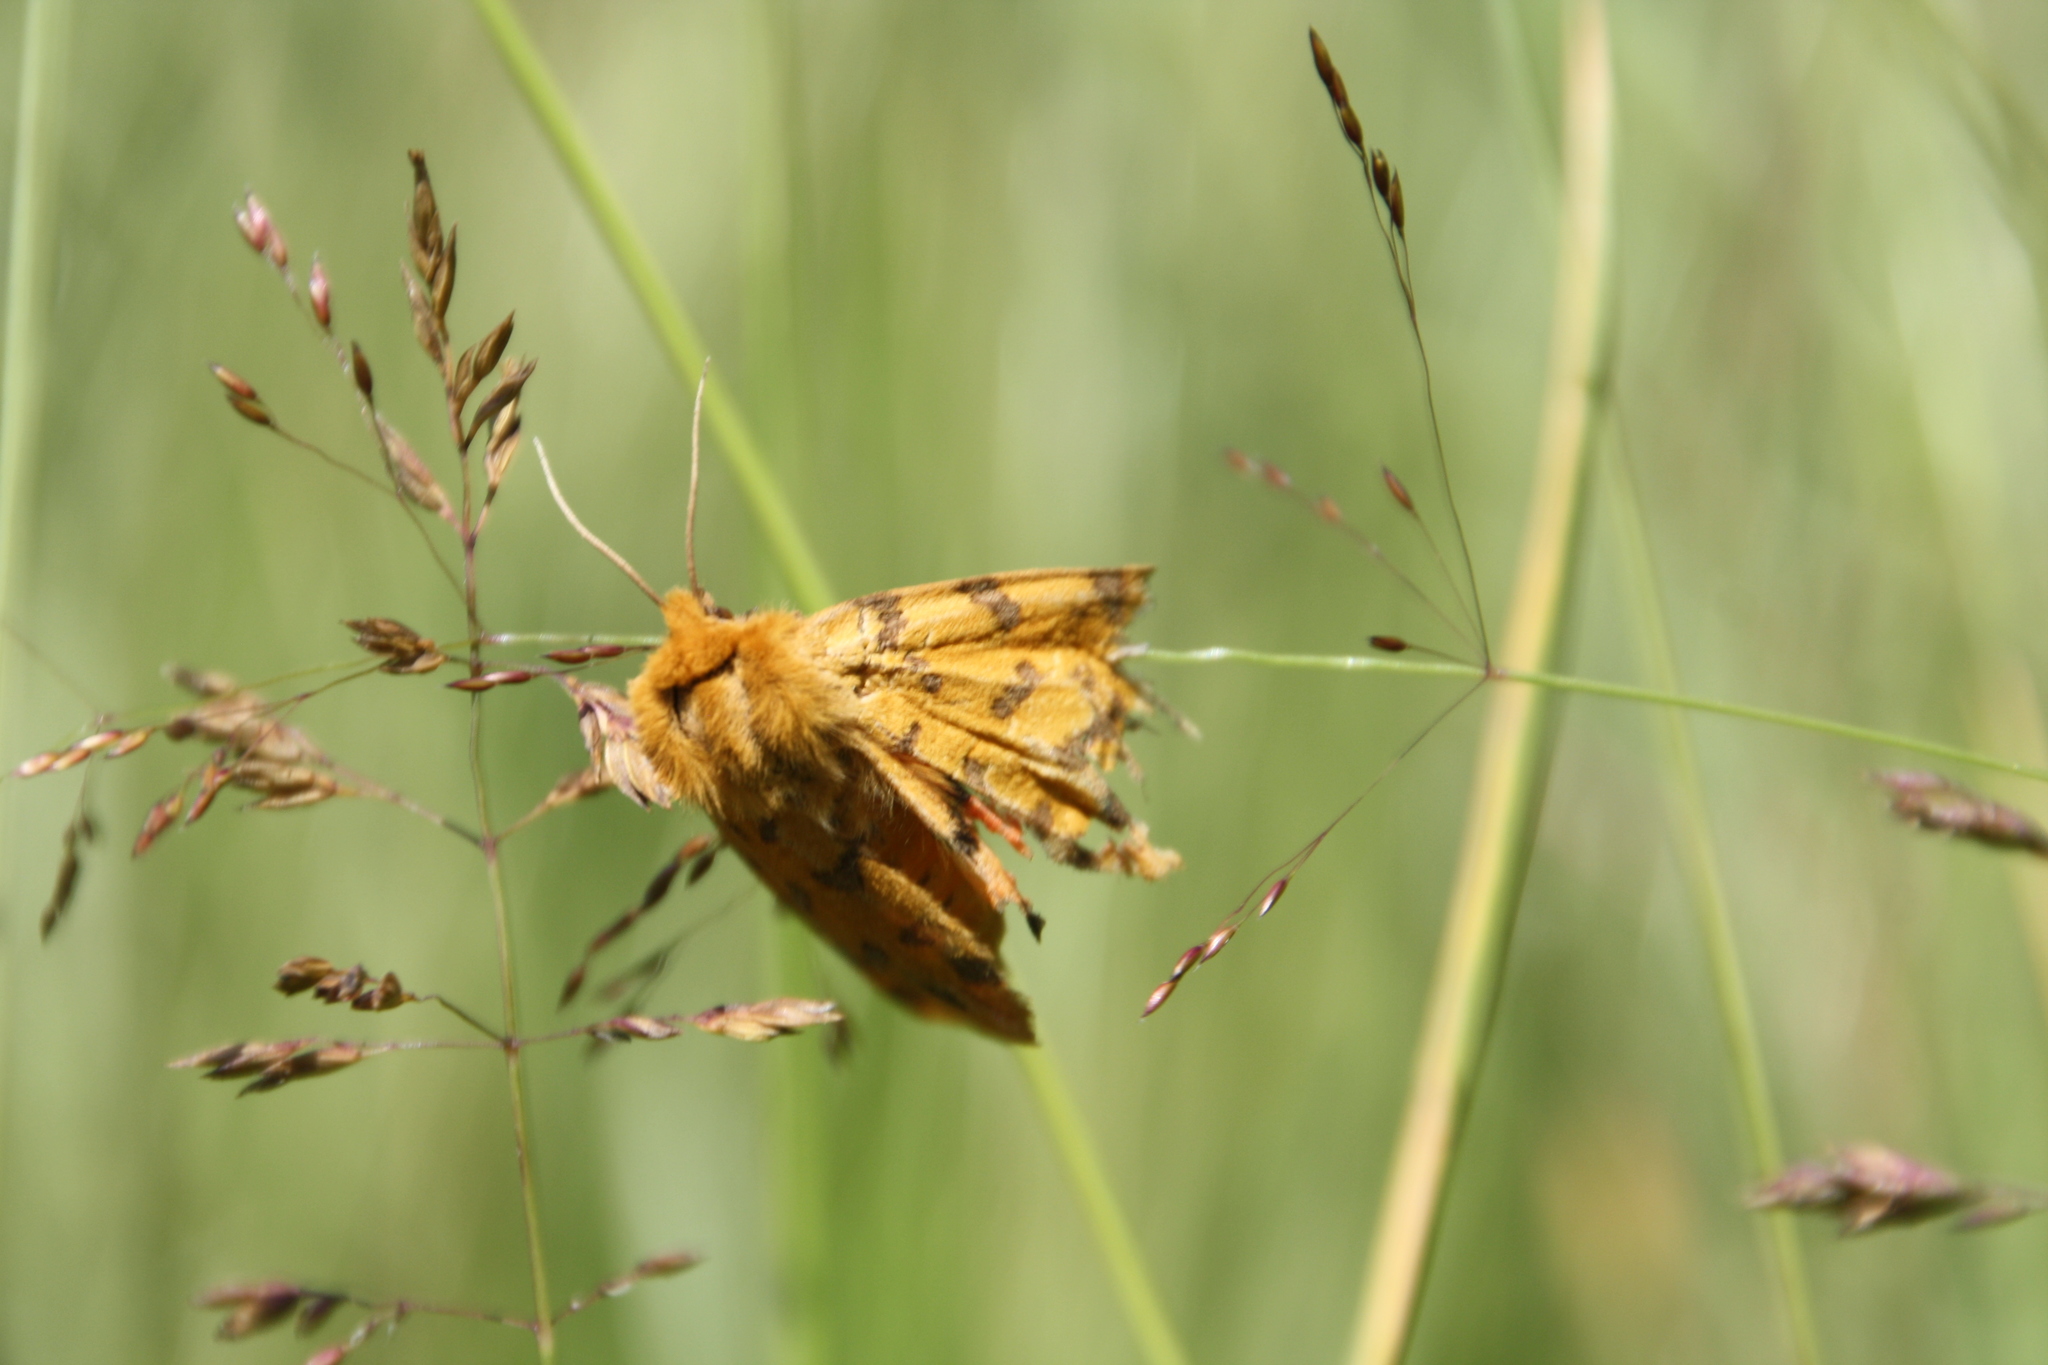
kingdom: Animalia
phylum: Arthropoda
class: Insecta
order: Lepidoptera
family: Erebidae
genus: Rhyparia
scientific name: Rhyparia purpurata
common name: Purple tiger
